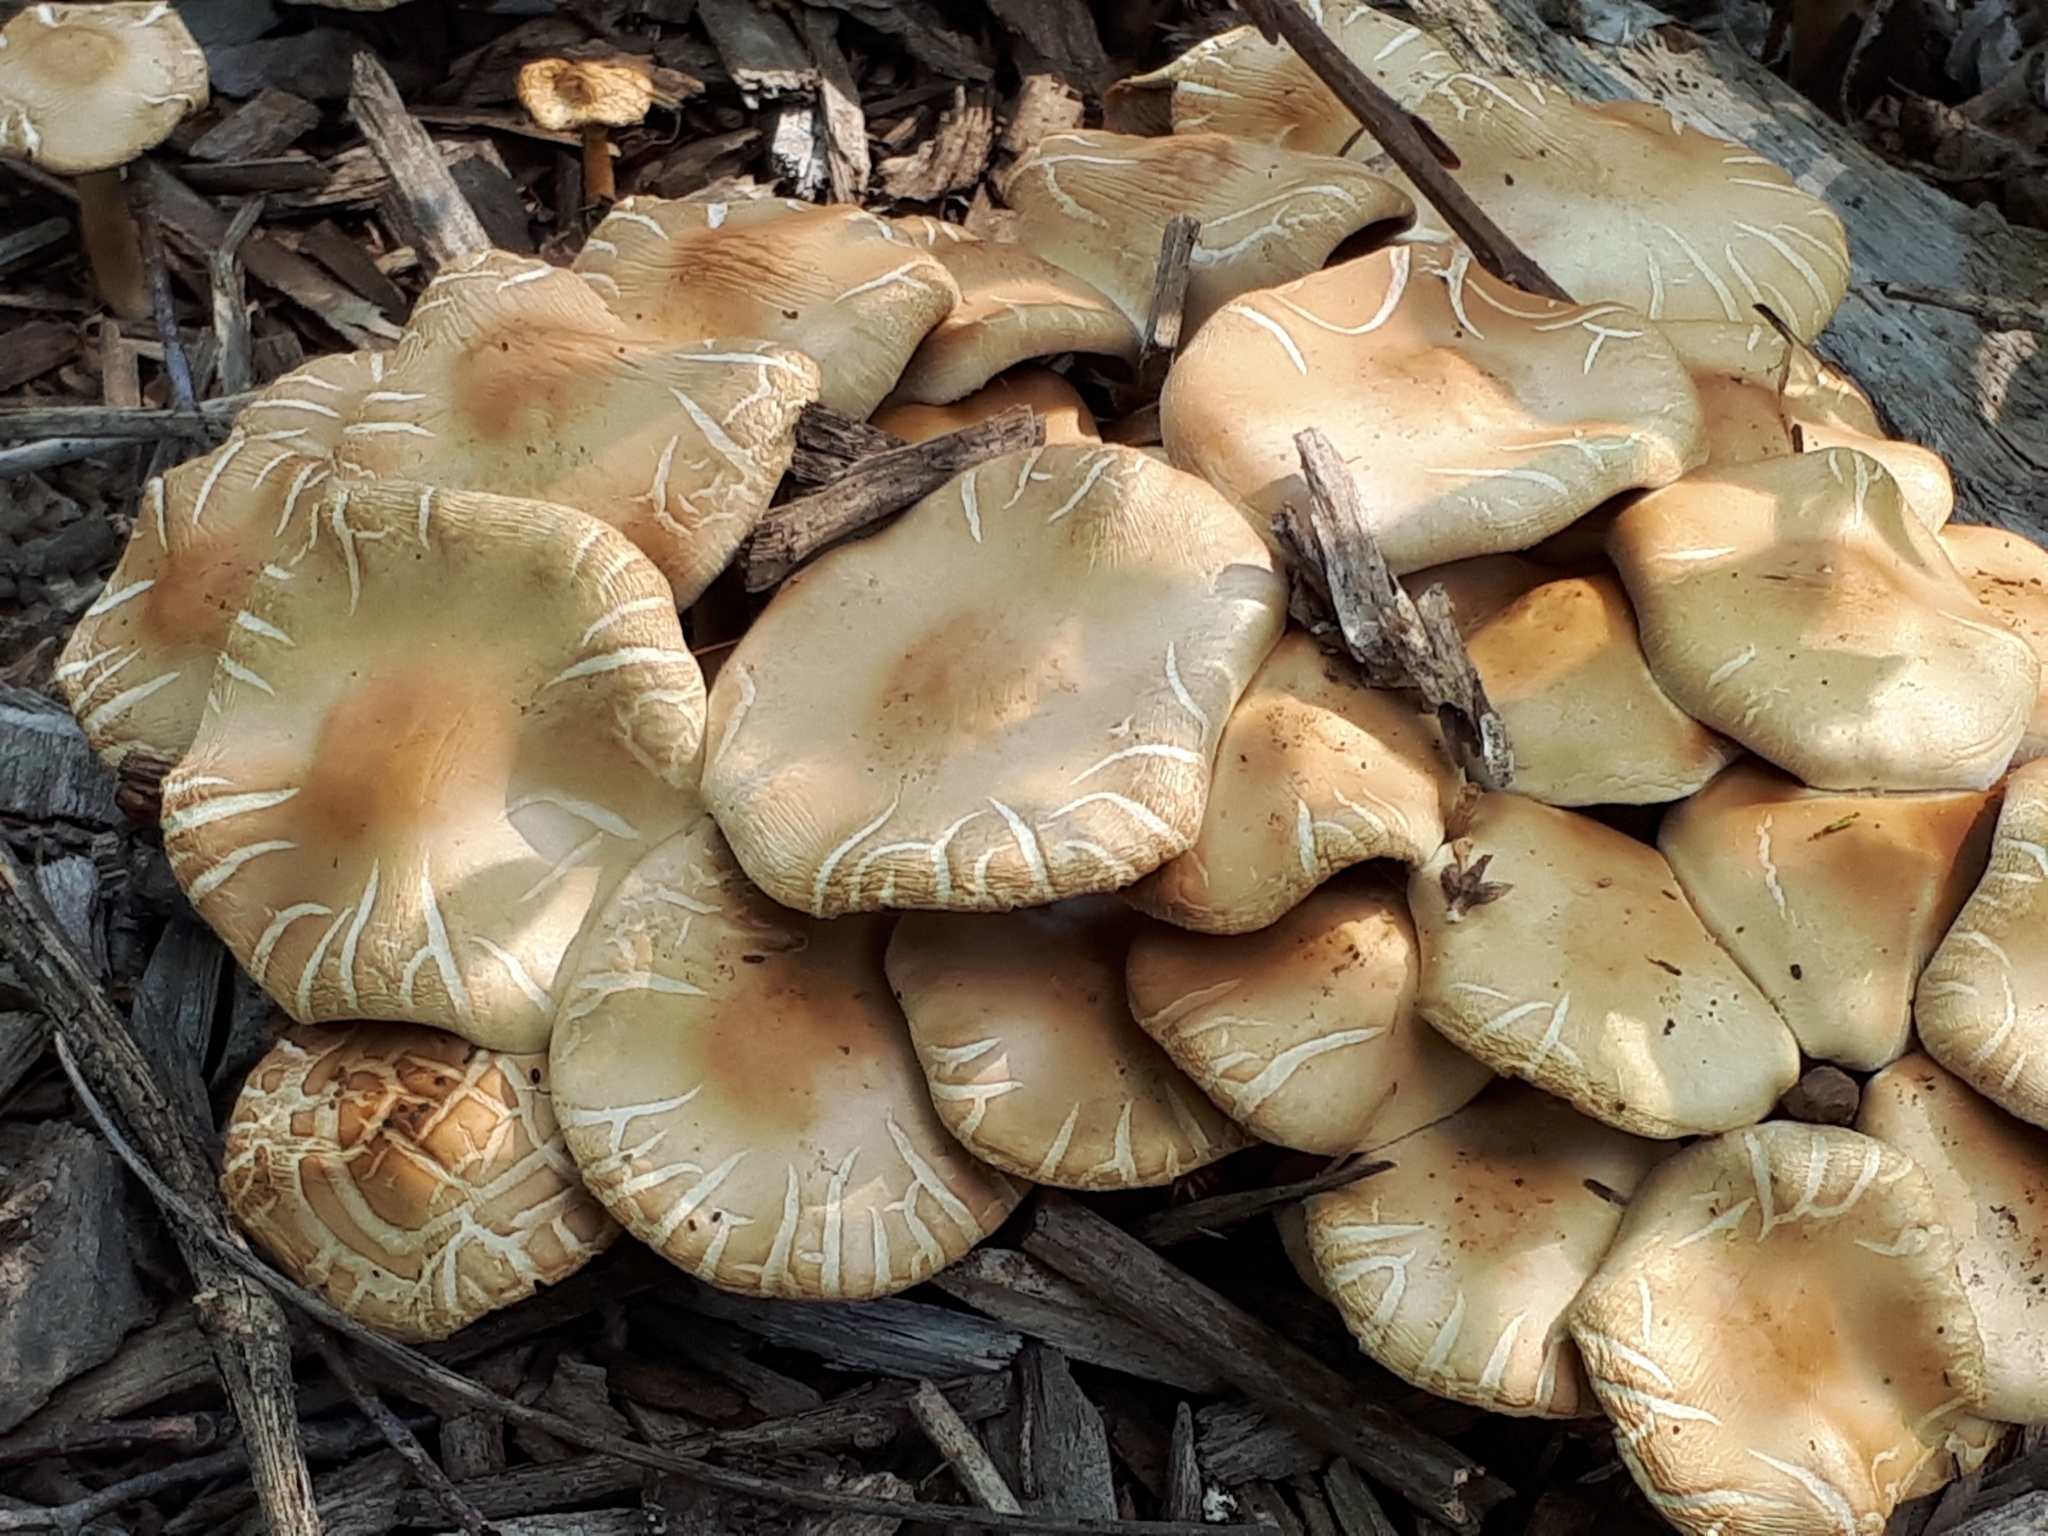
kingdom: Fungi
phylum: Basidiomycota
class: Agaricomycetes
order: Agaricales
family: Strophariaceae
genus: Agrocybe
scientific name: Agrocybe praecox
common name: Spring fieldcap
